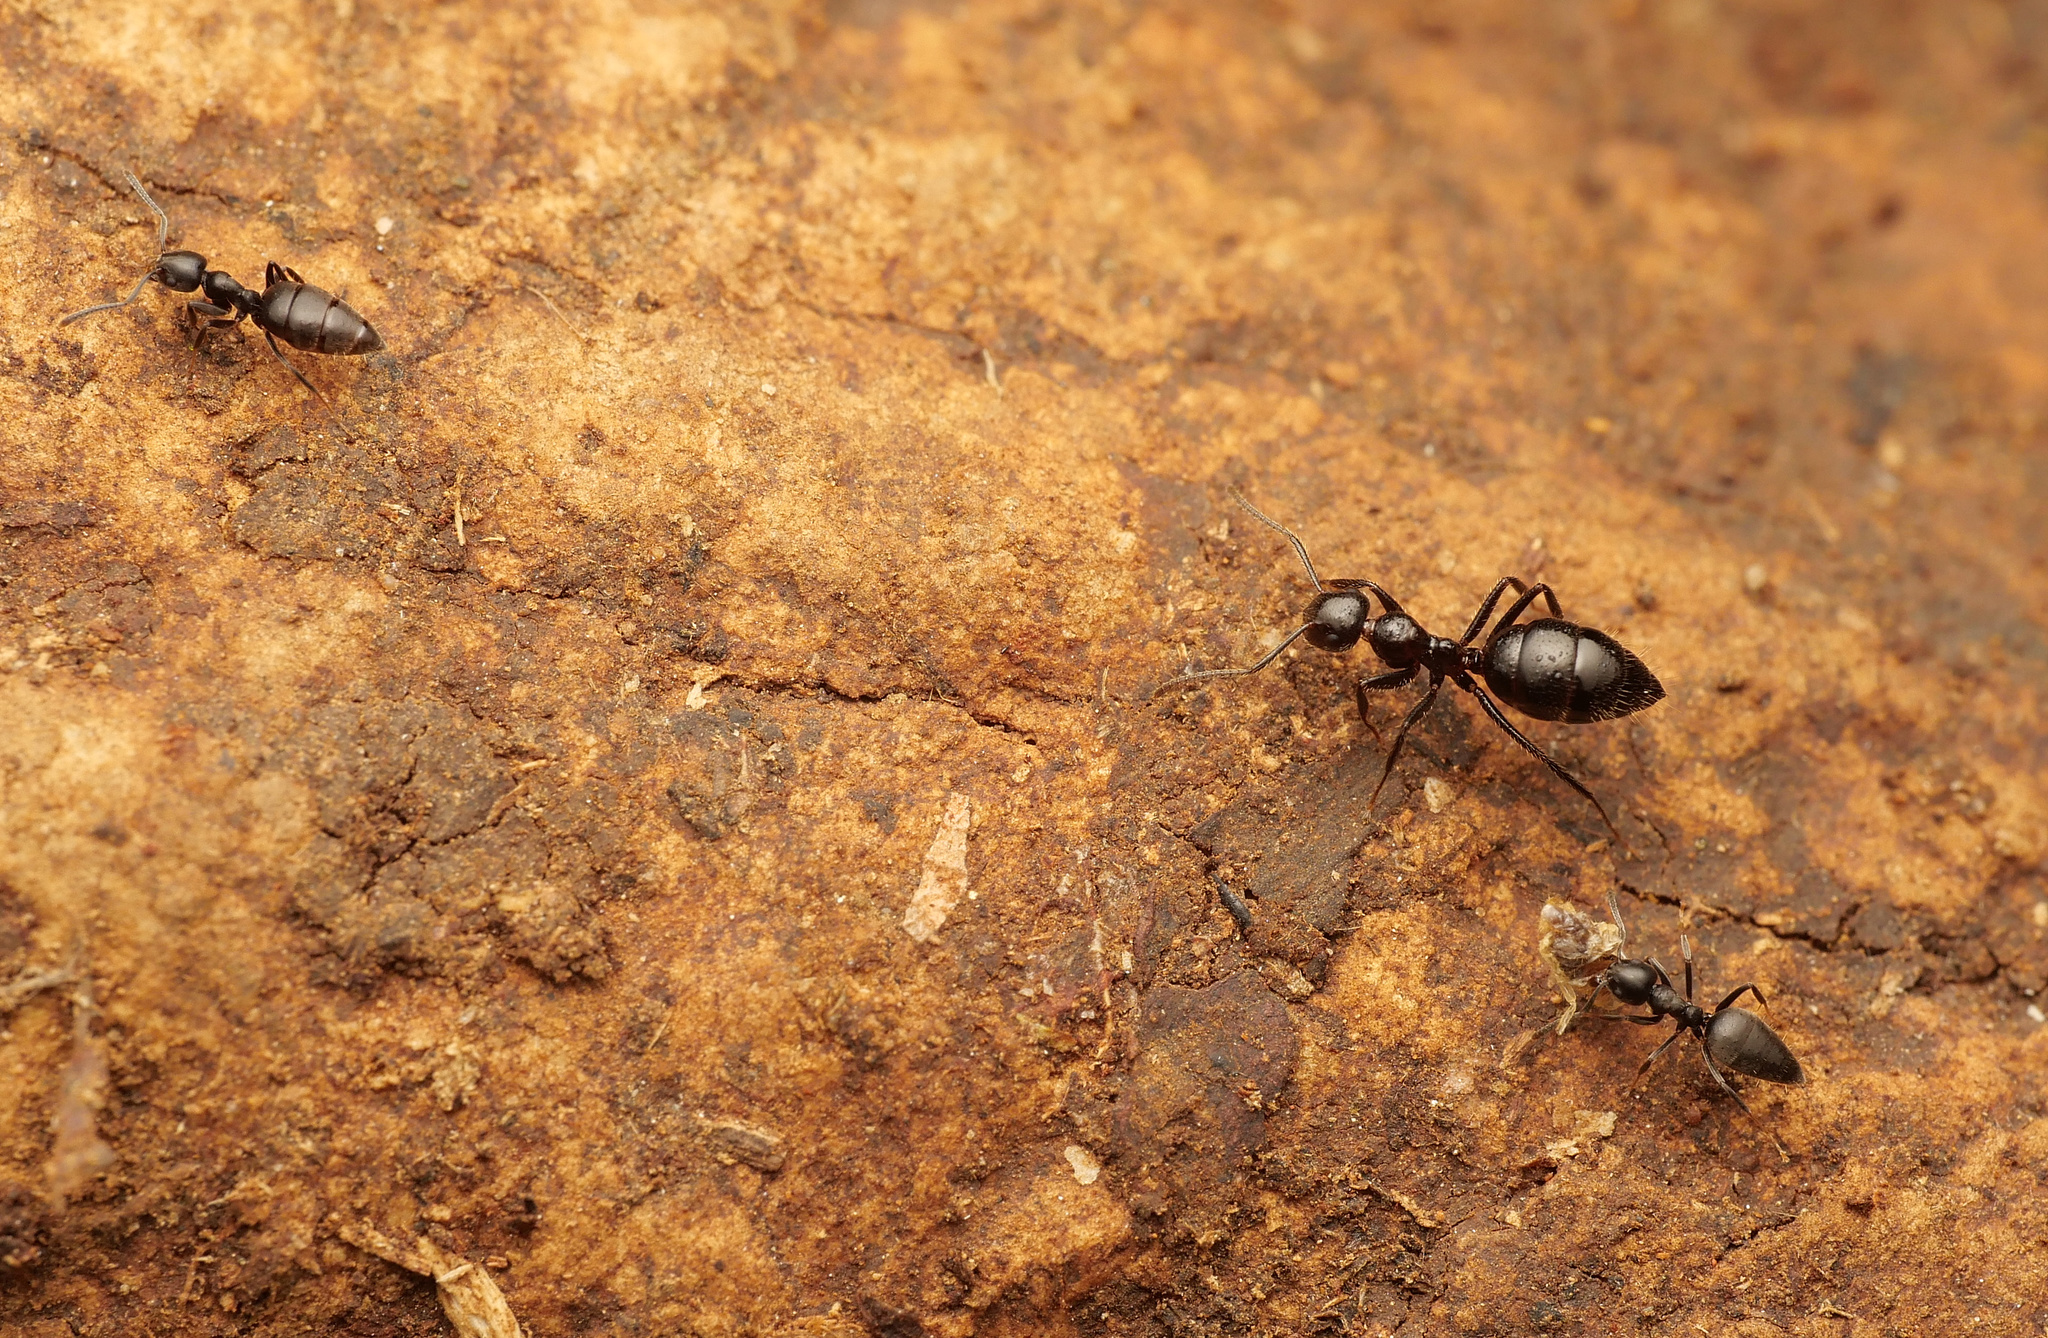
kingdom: Animalia
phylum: Arthropoda
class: Insecta
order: Hymenoptera
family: Formicidae
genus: Camponotus
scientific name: Camponotus vitreus
